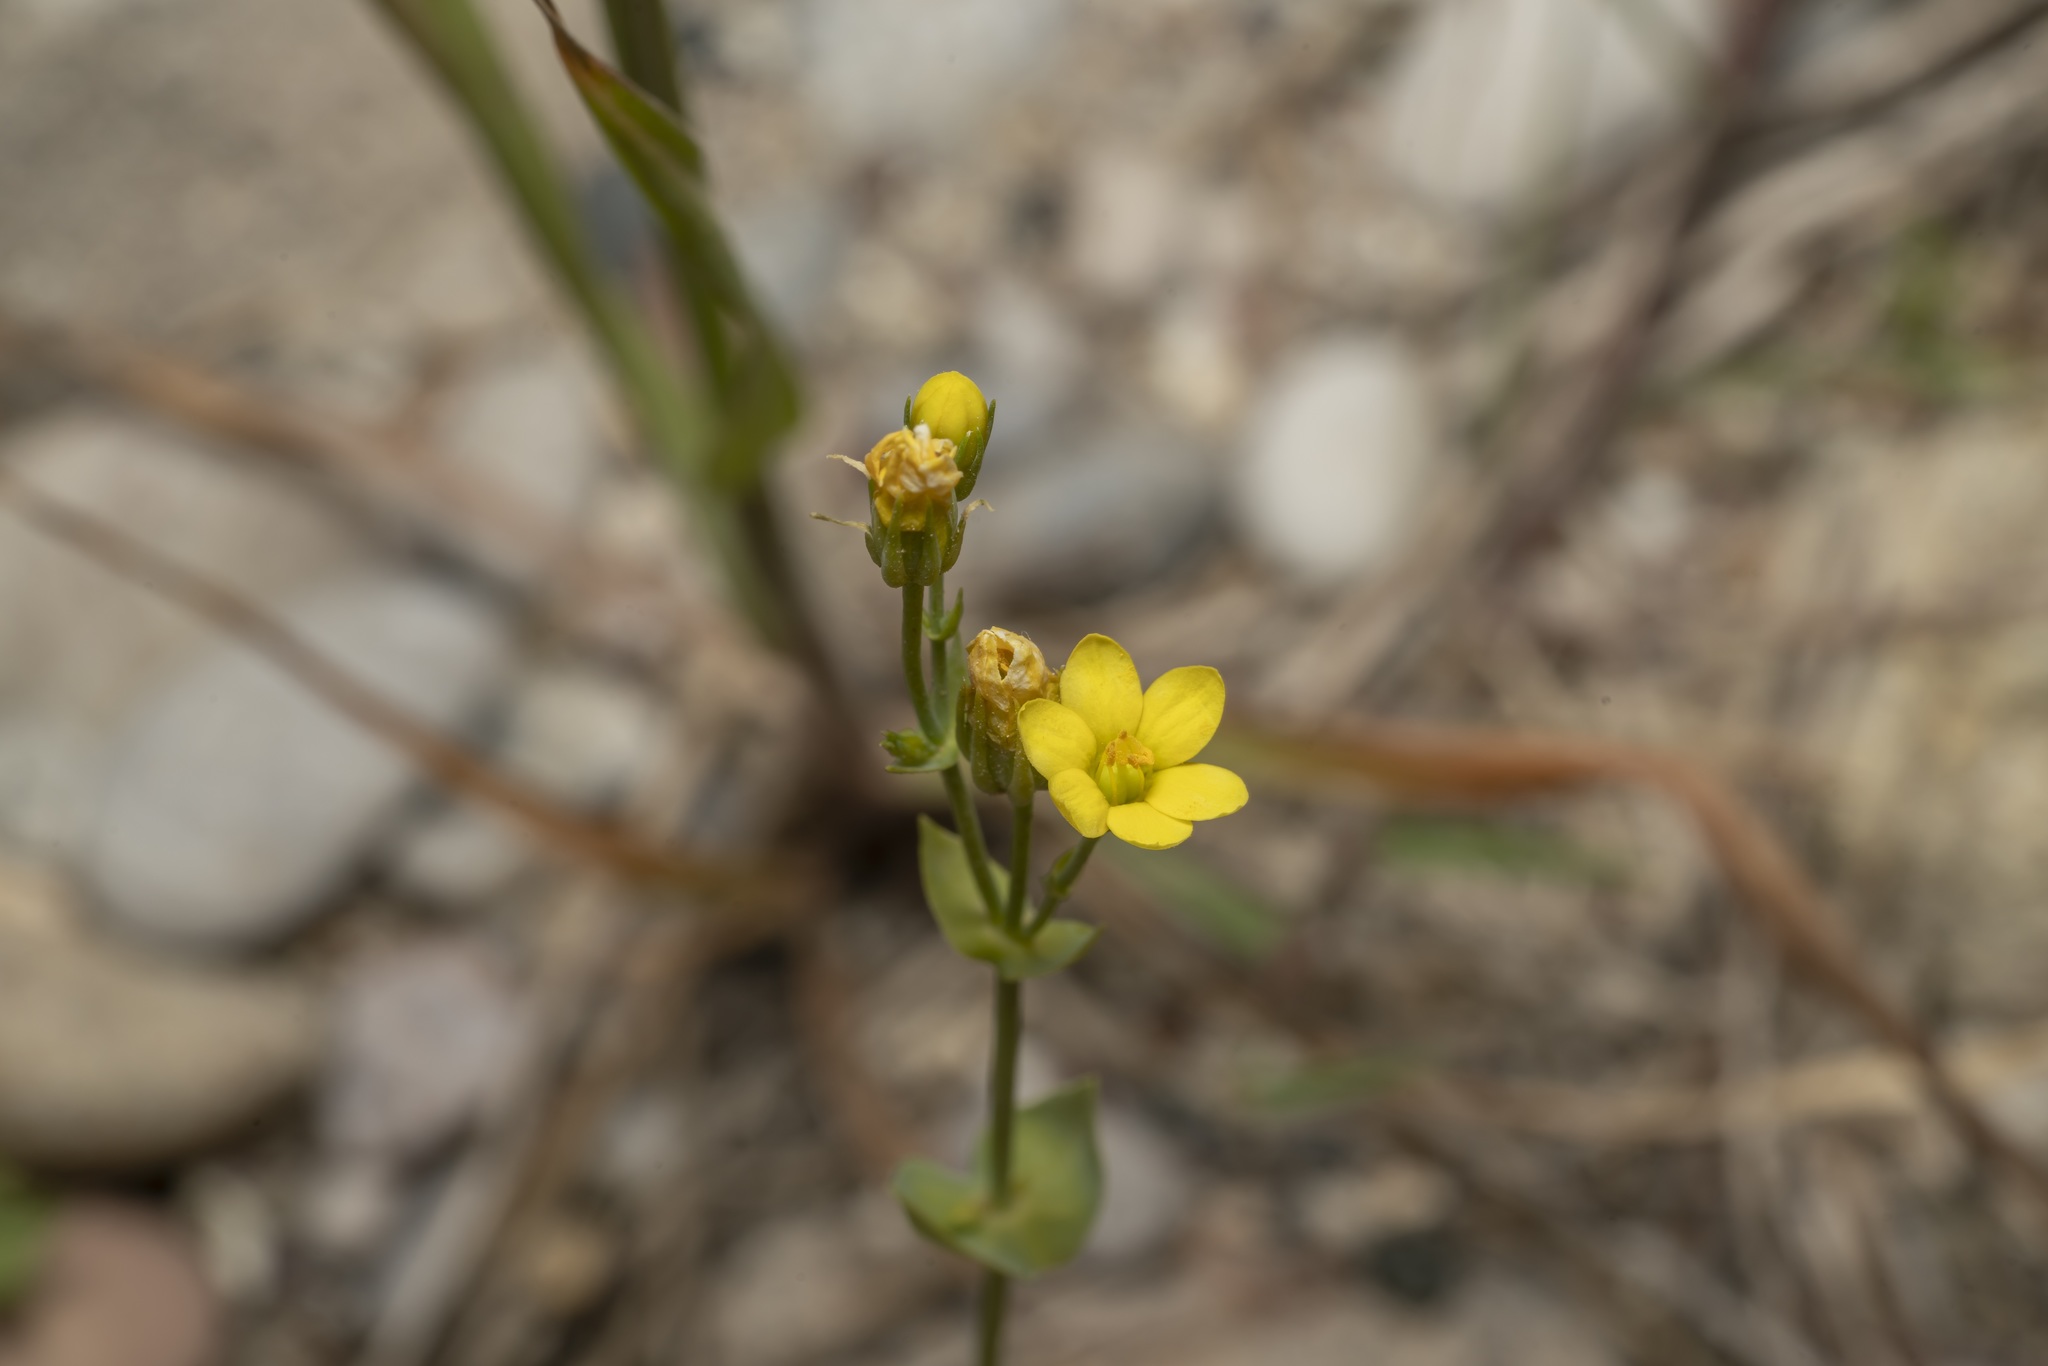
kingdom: Plantae
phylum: Tracheophyta
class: Magnoliopsida
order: Gentianales
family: Gentianaceae
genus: Blackstonia
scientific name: Blackstonia acuminata
